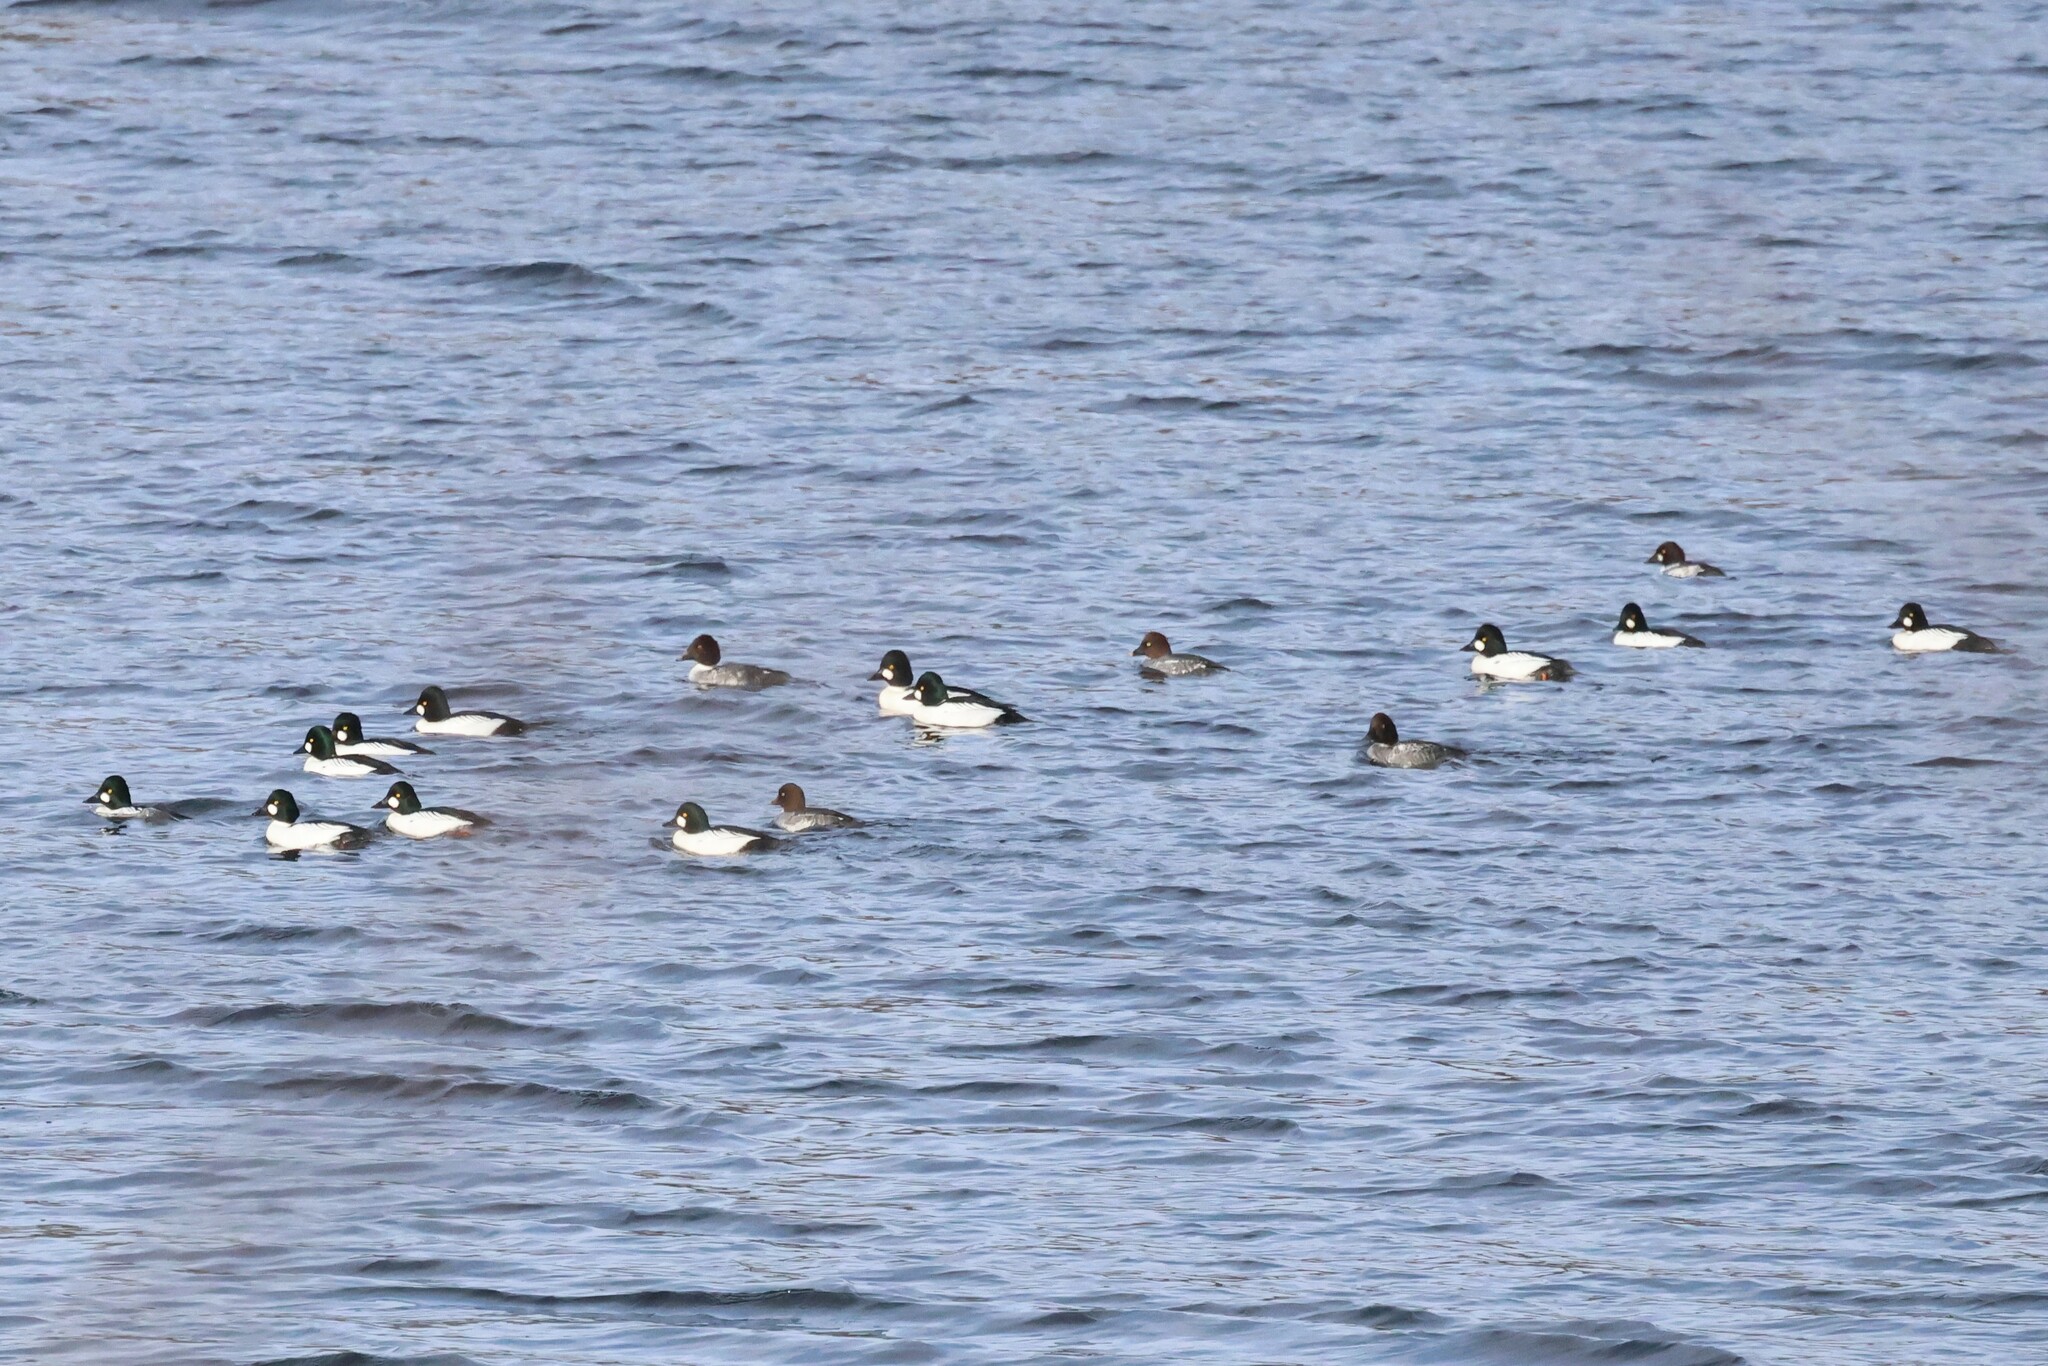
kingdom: Animalia
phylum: Chordata
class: Aves
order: Anseriformes
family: Anatidae
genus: Bucephala
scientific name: Bucephala clangula
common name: Common goldeneye
